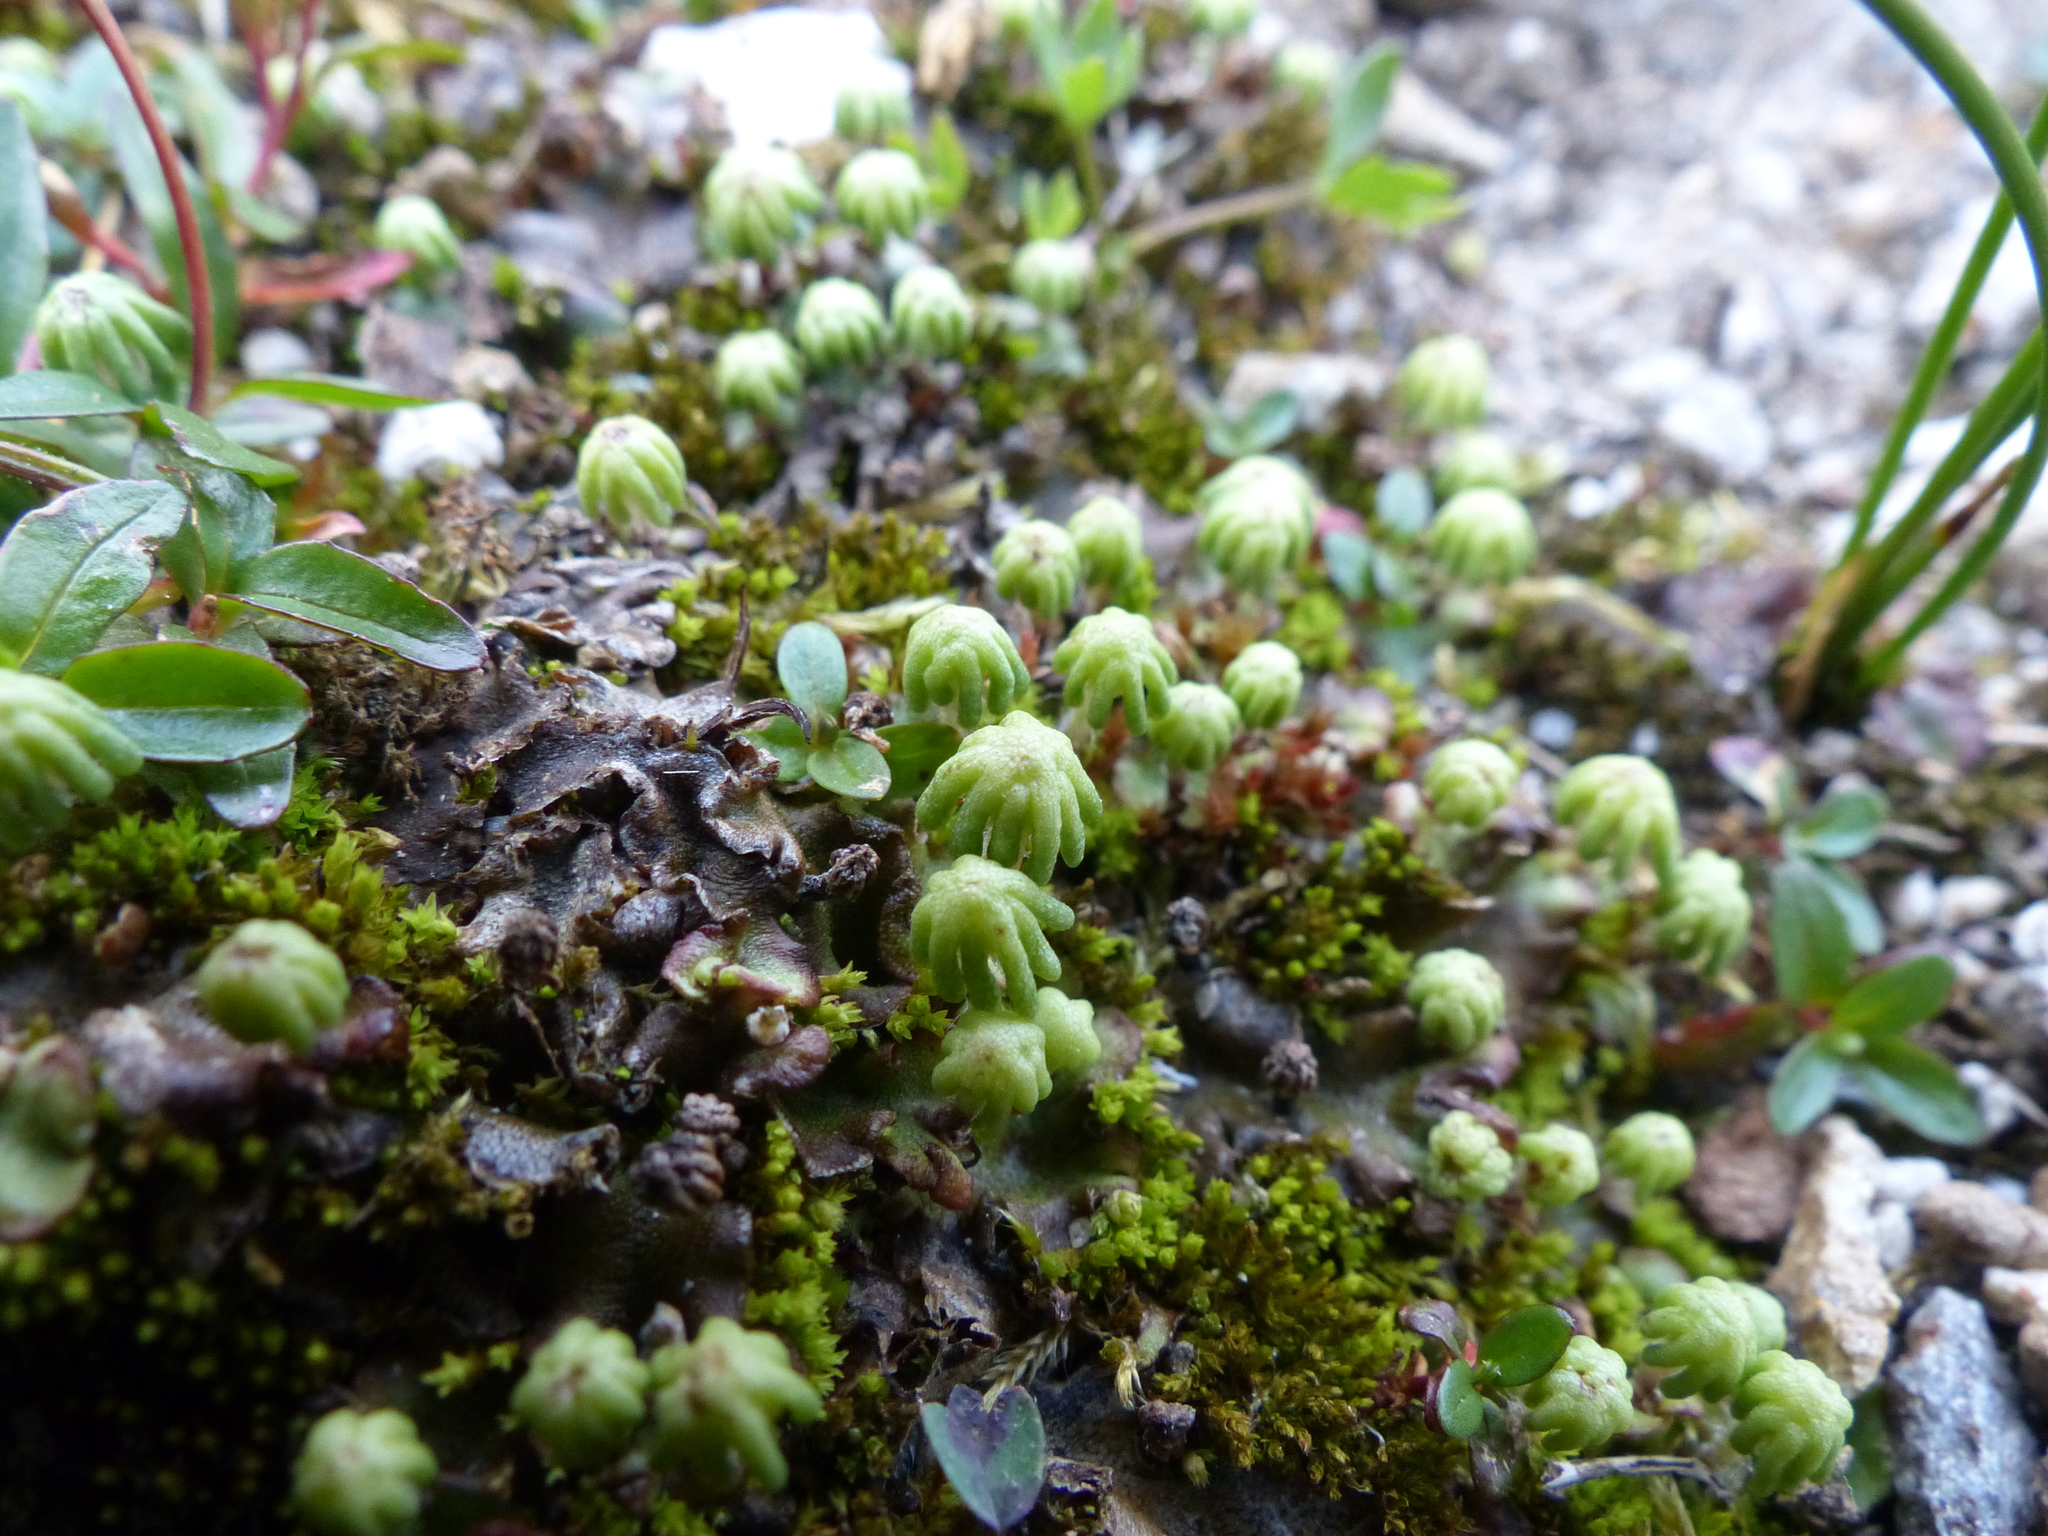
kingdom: Plantae
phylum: Marchantiophyta
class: Marchantiopsida
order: Marchantiales
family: Marchantiaceae
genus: Marchantia
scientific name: Marchantia polymorpha
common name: Common liverwort
